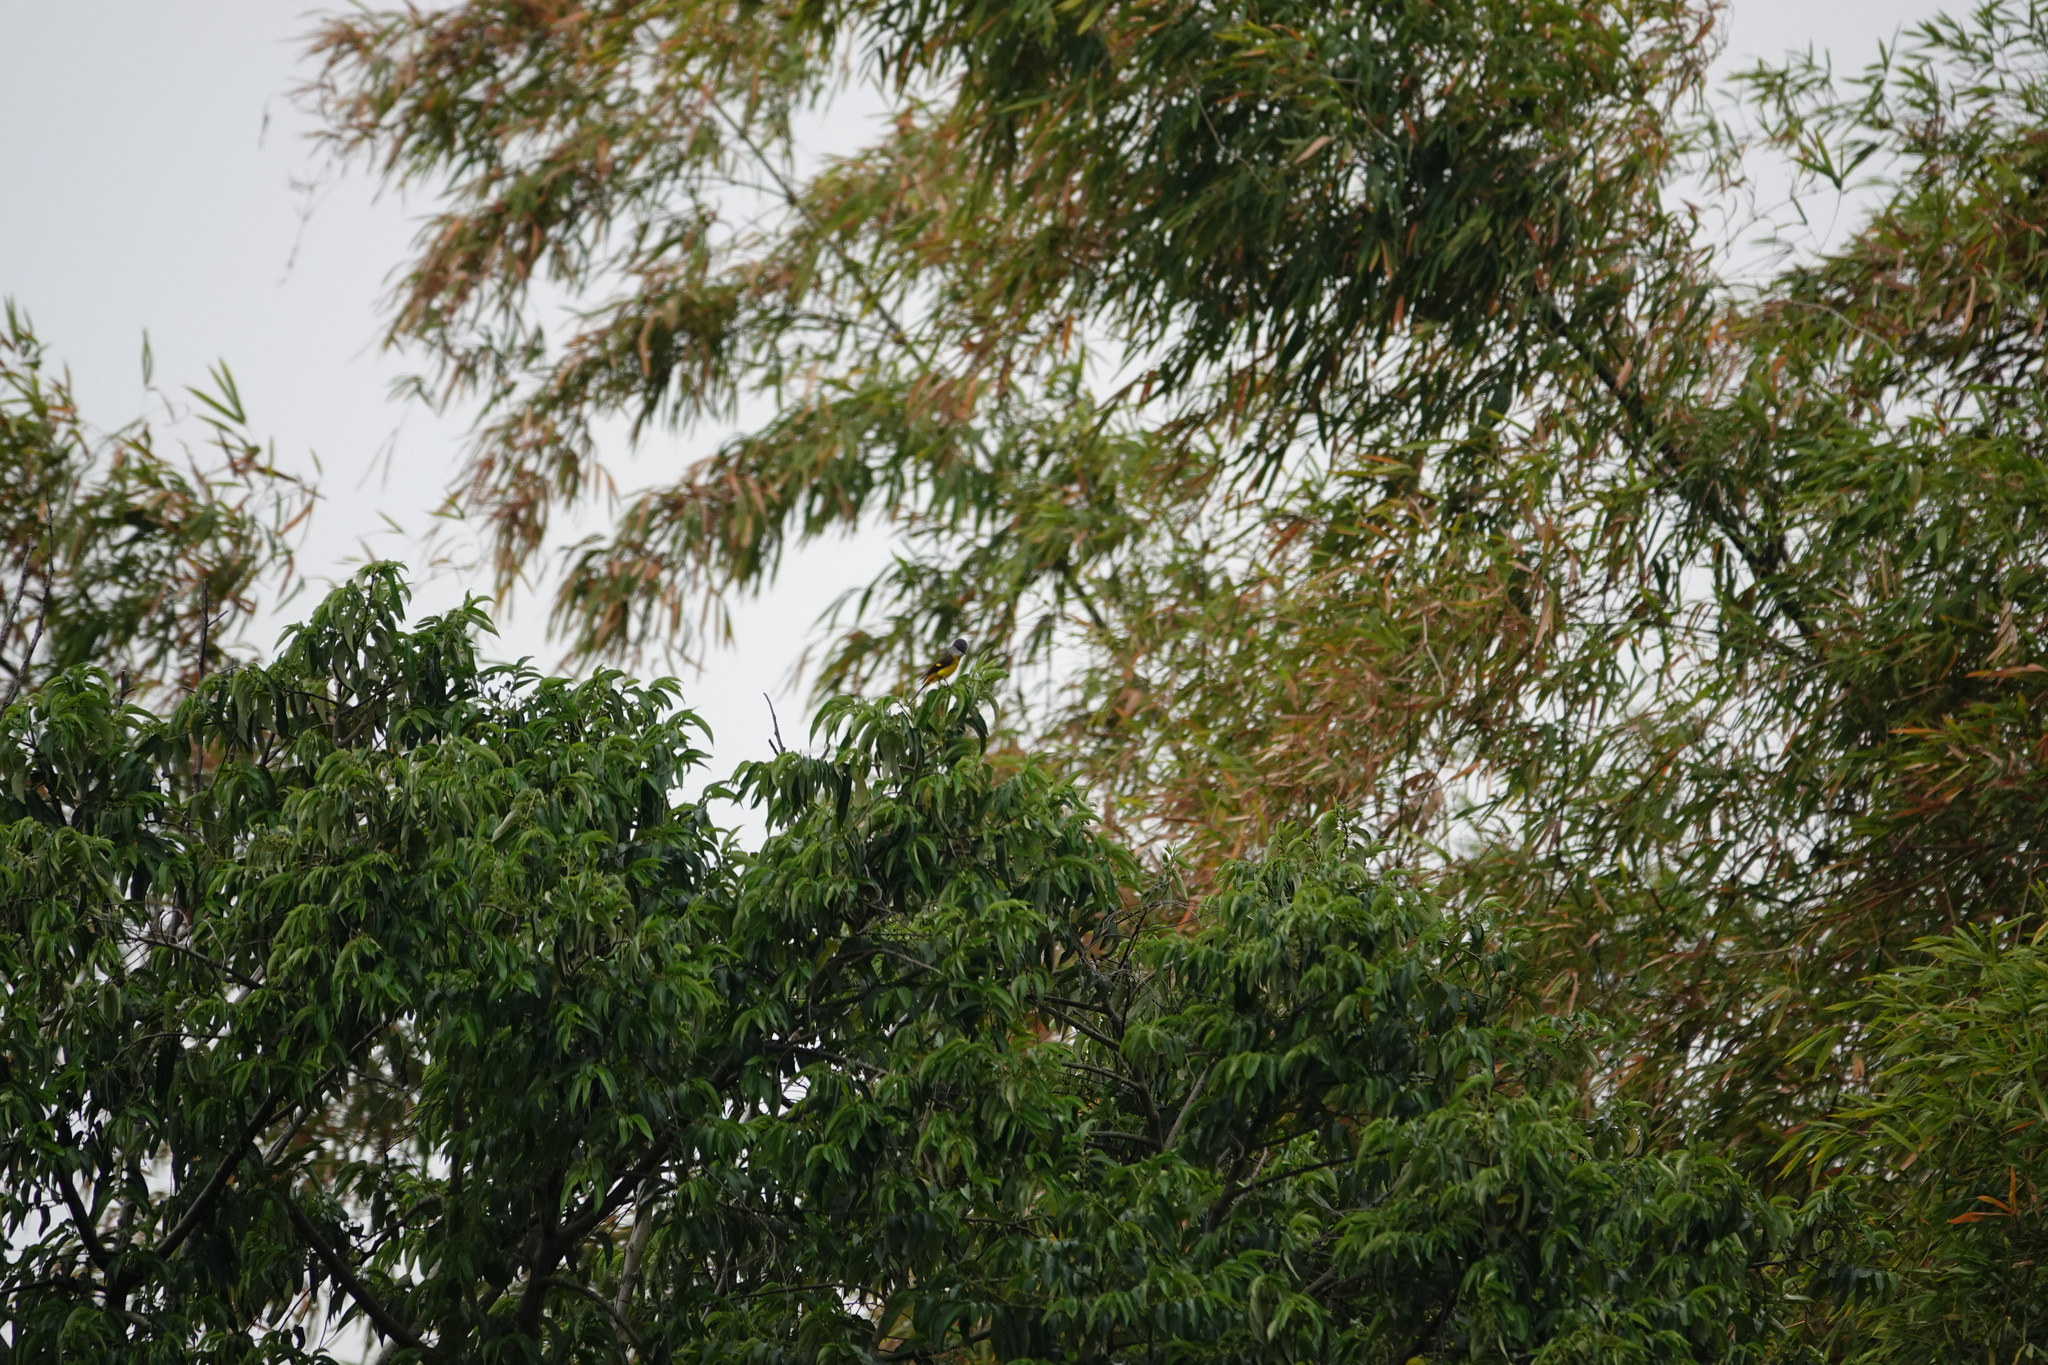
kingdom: Animalia
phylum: Chordata
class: Aves
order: Passeriformes
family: Campephagidae
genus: Pericrocotus
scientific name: Pericrocotus solaris
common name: Grey-chinned minivet
